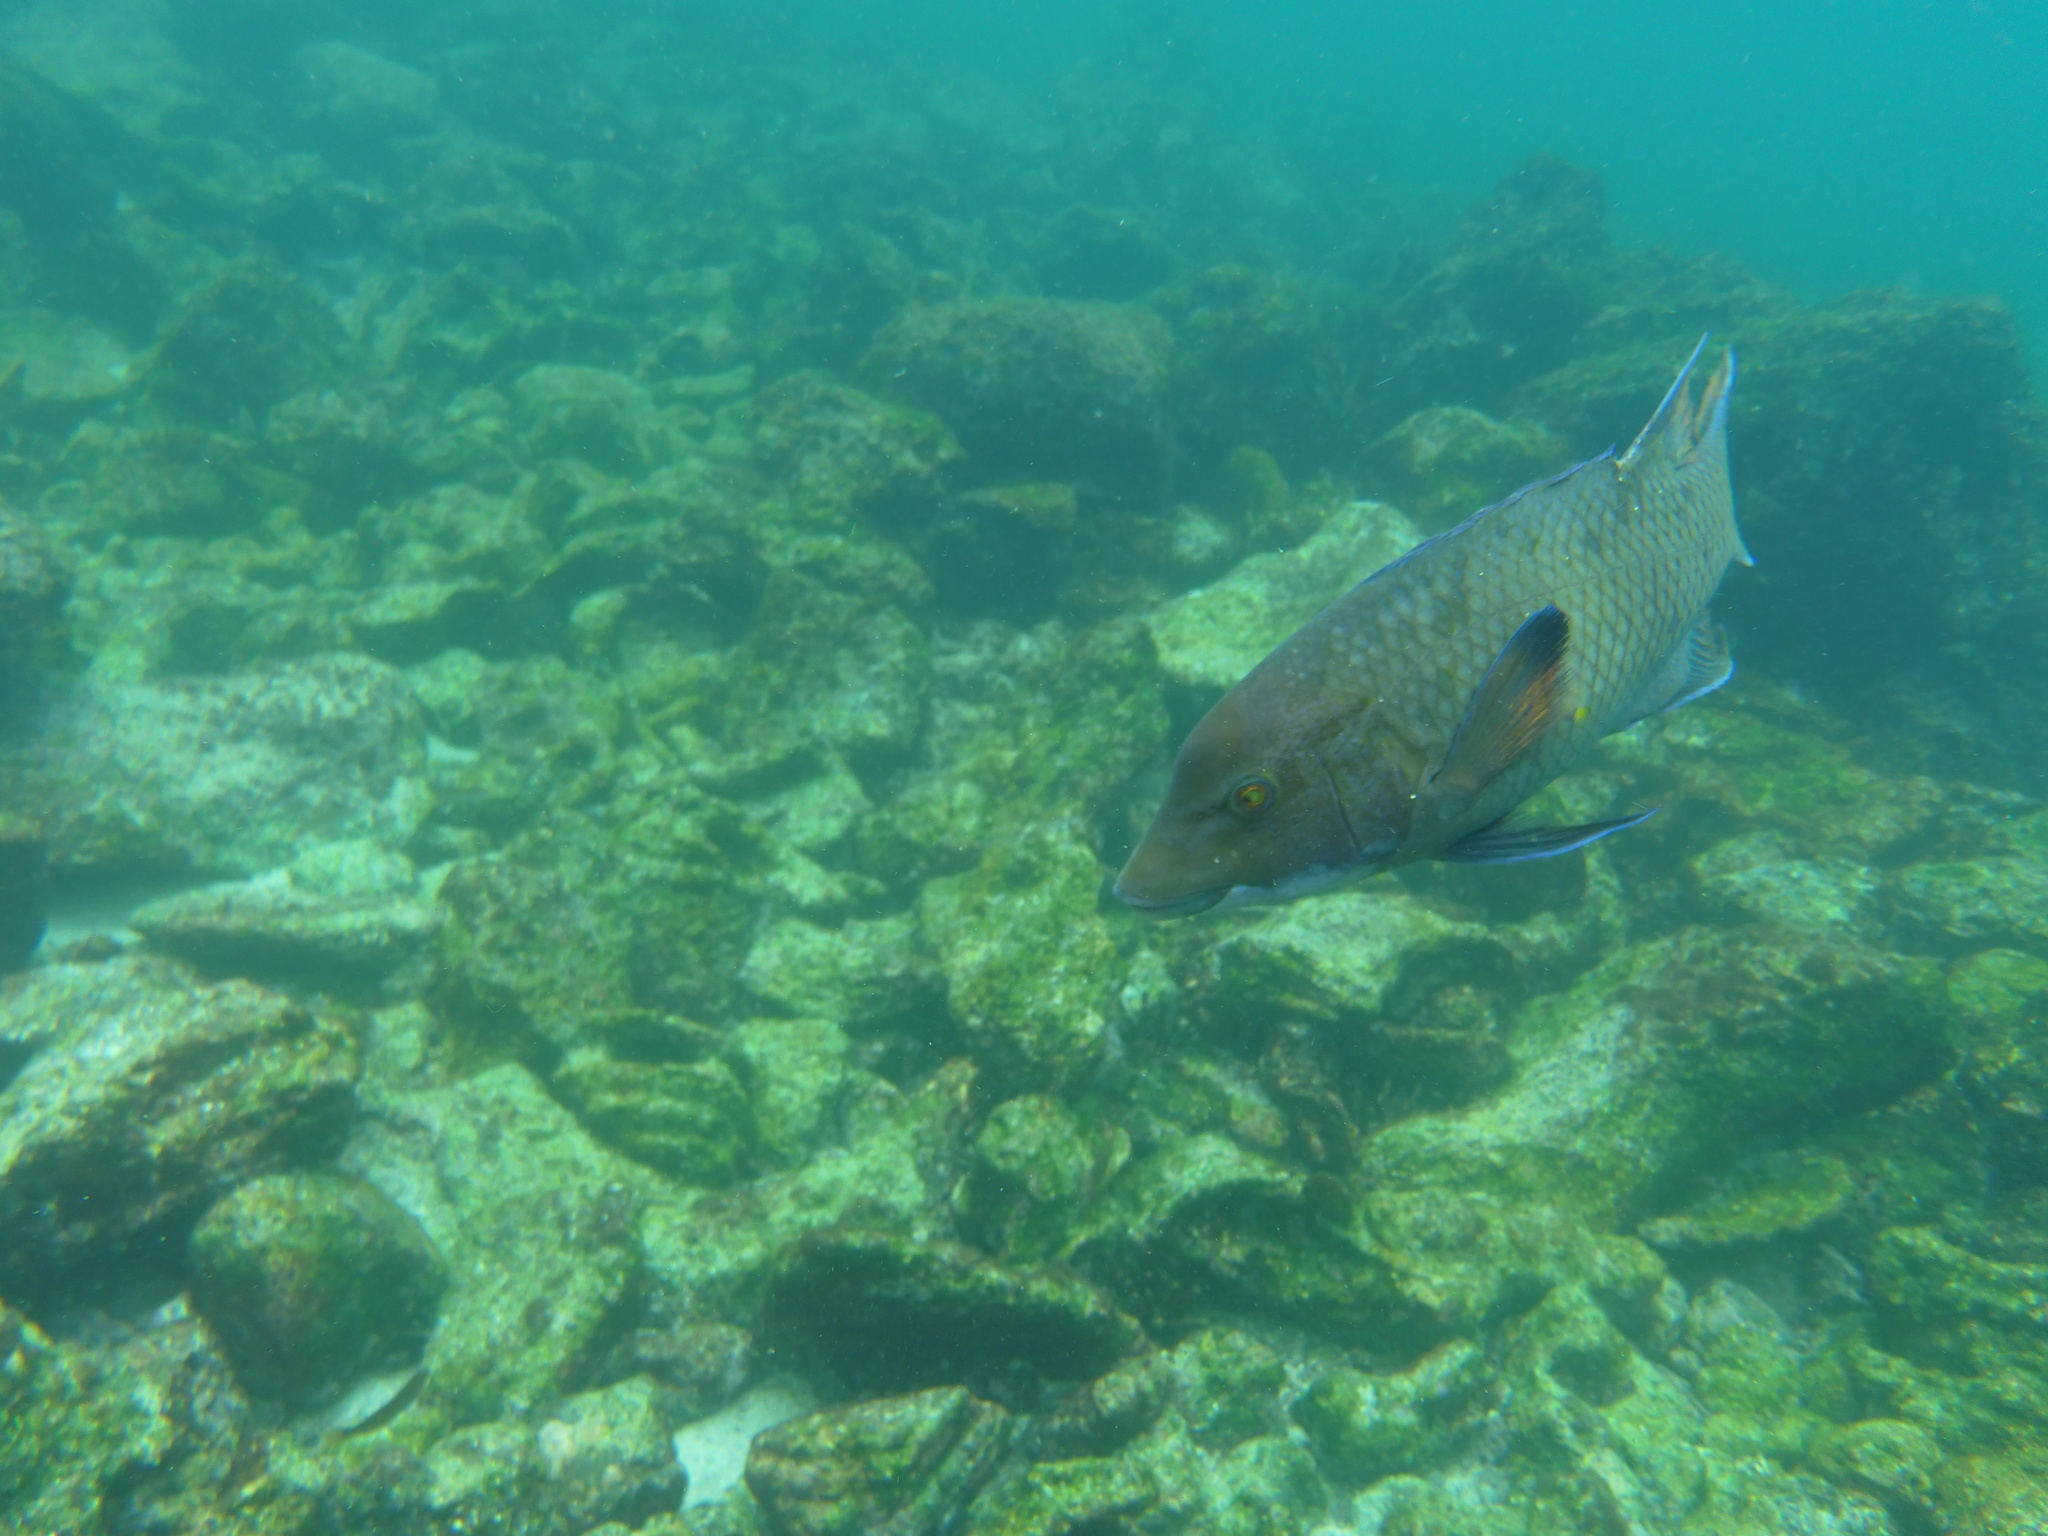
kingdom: Animalia
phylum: Chordata
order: Perciformes
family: Labridae
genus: Bodianus
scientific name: Bodianus diplotaenia
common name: Mexican hogfish
